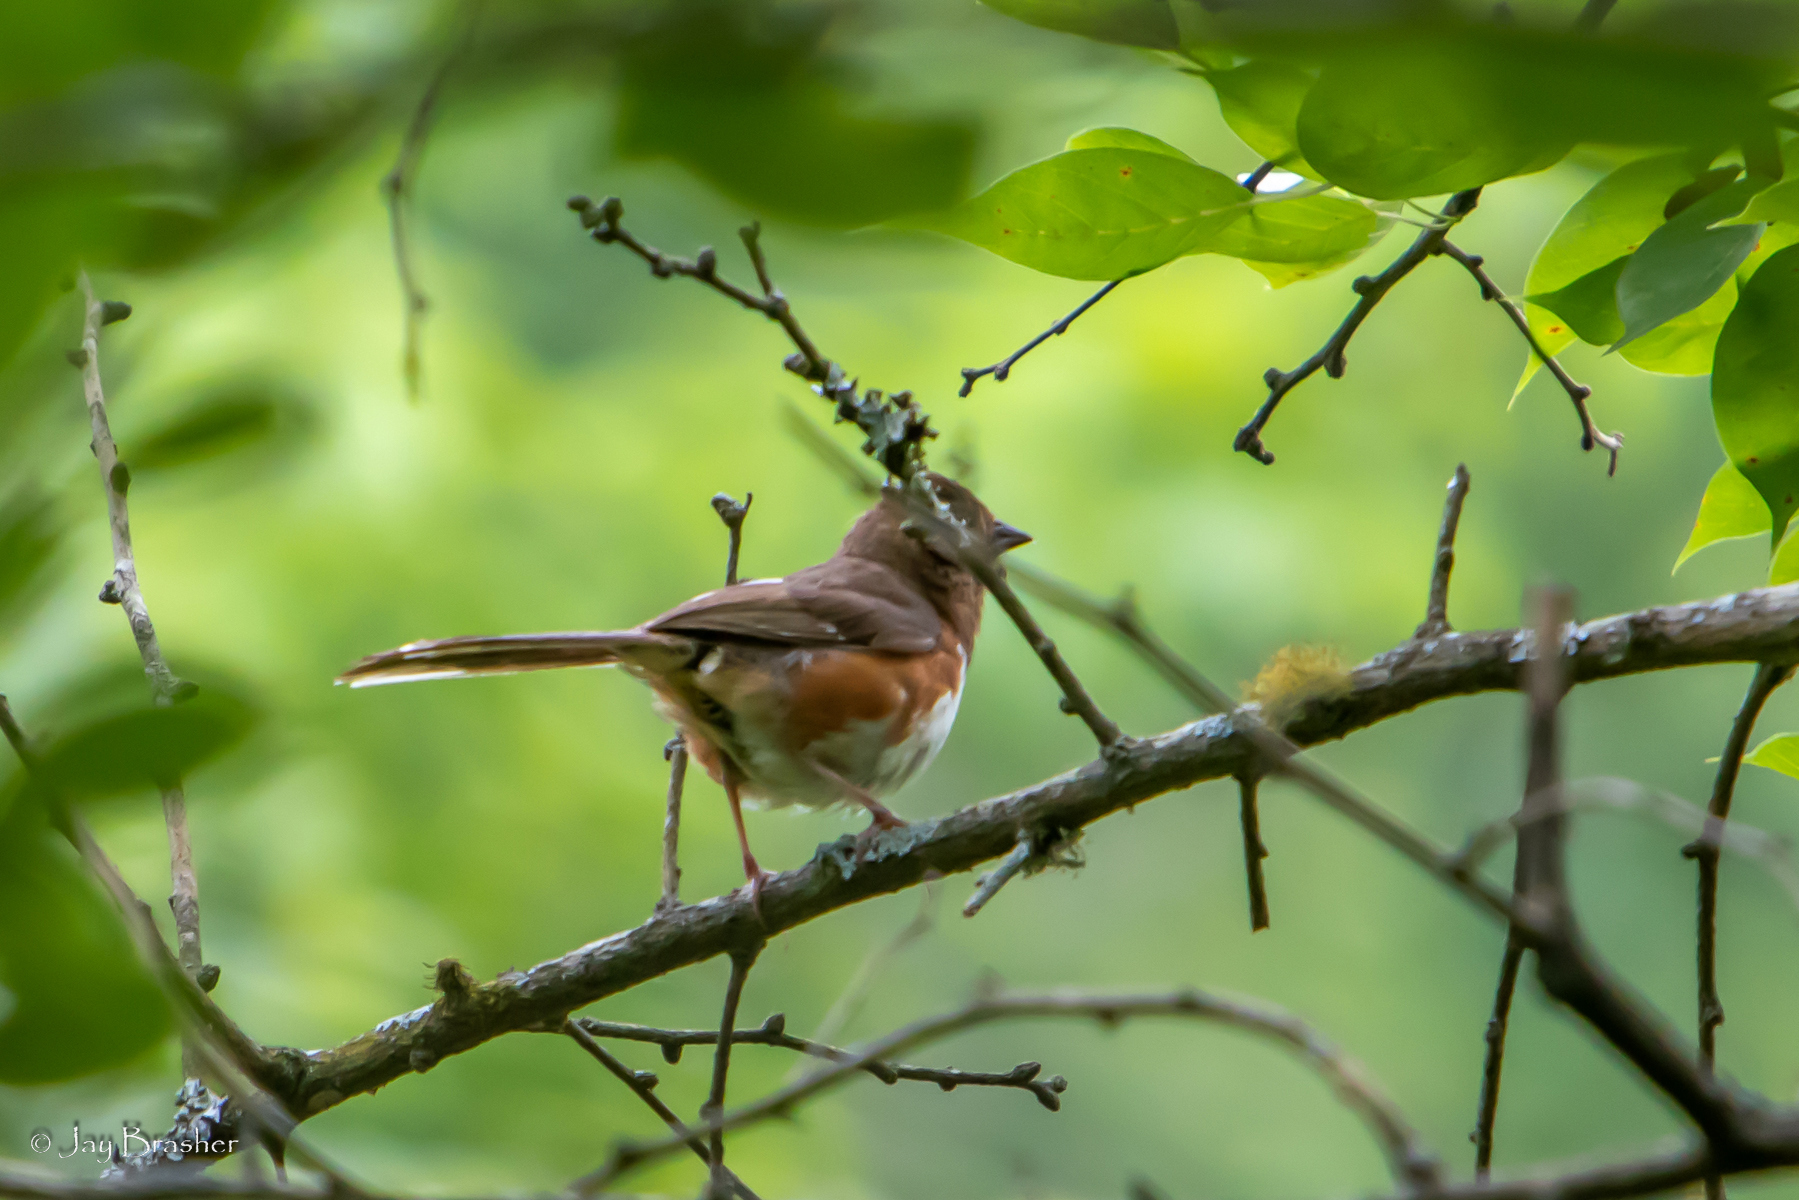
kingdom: Animalia
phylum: Chordata
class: Aves
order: Passeriformes
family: Passerellidae
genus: Pipilo
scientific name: Pipilo erythrophthalmus
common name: Eastern towhee
